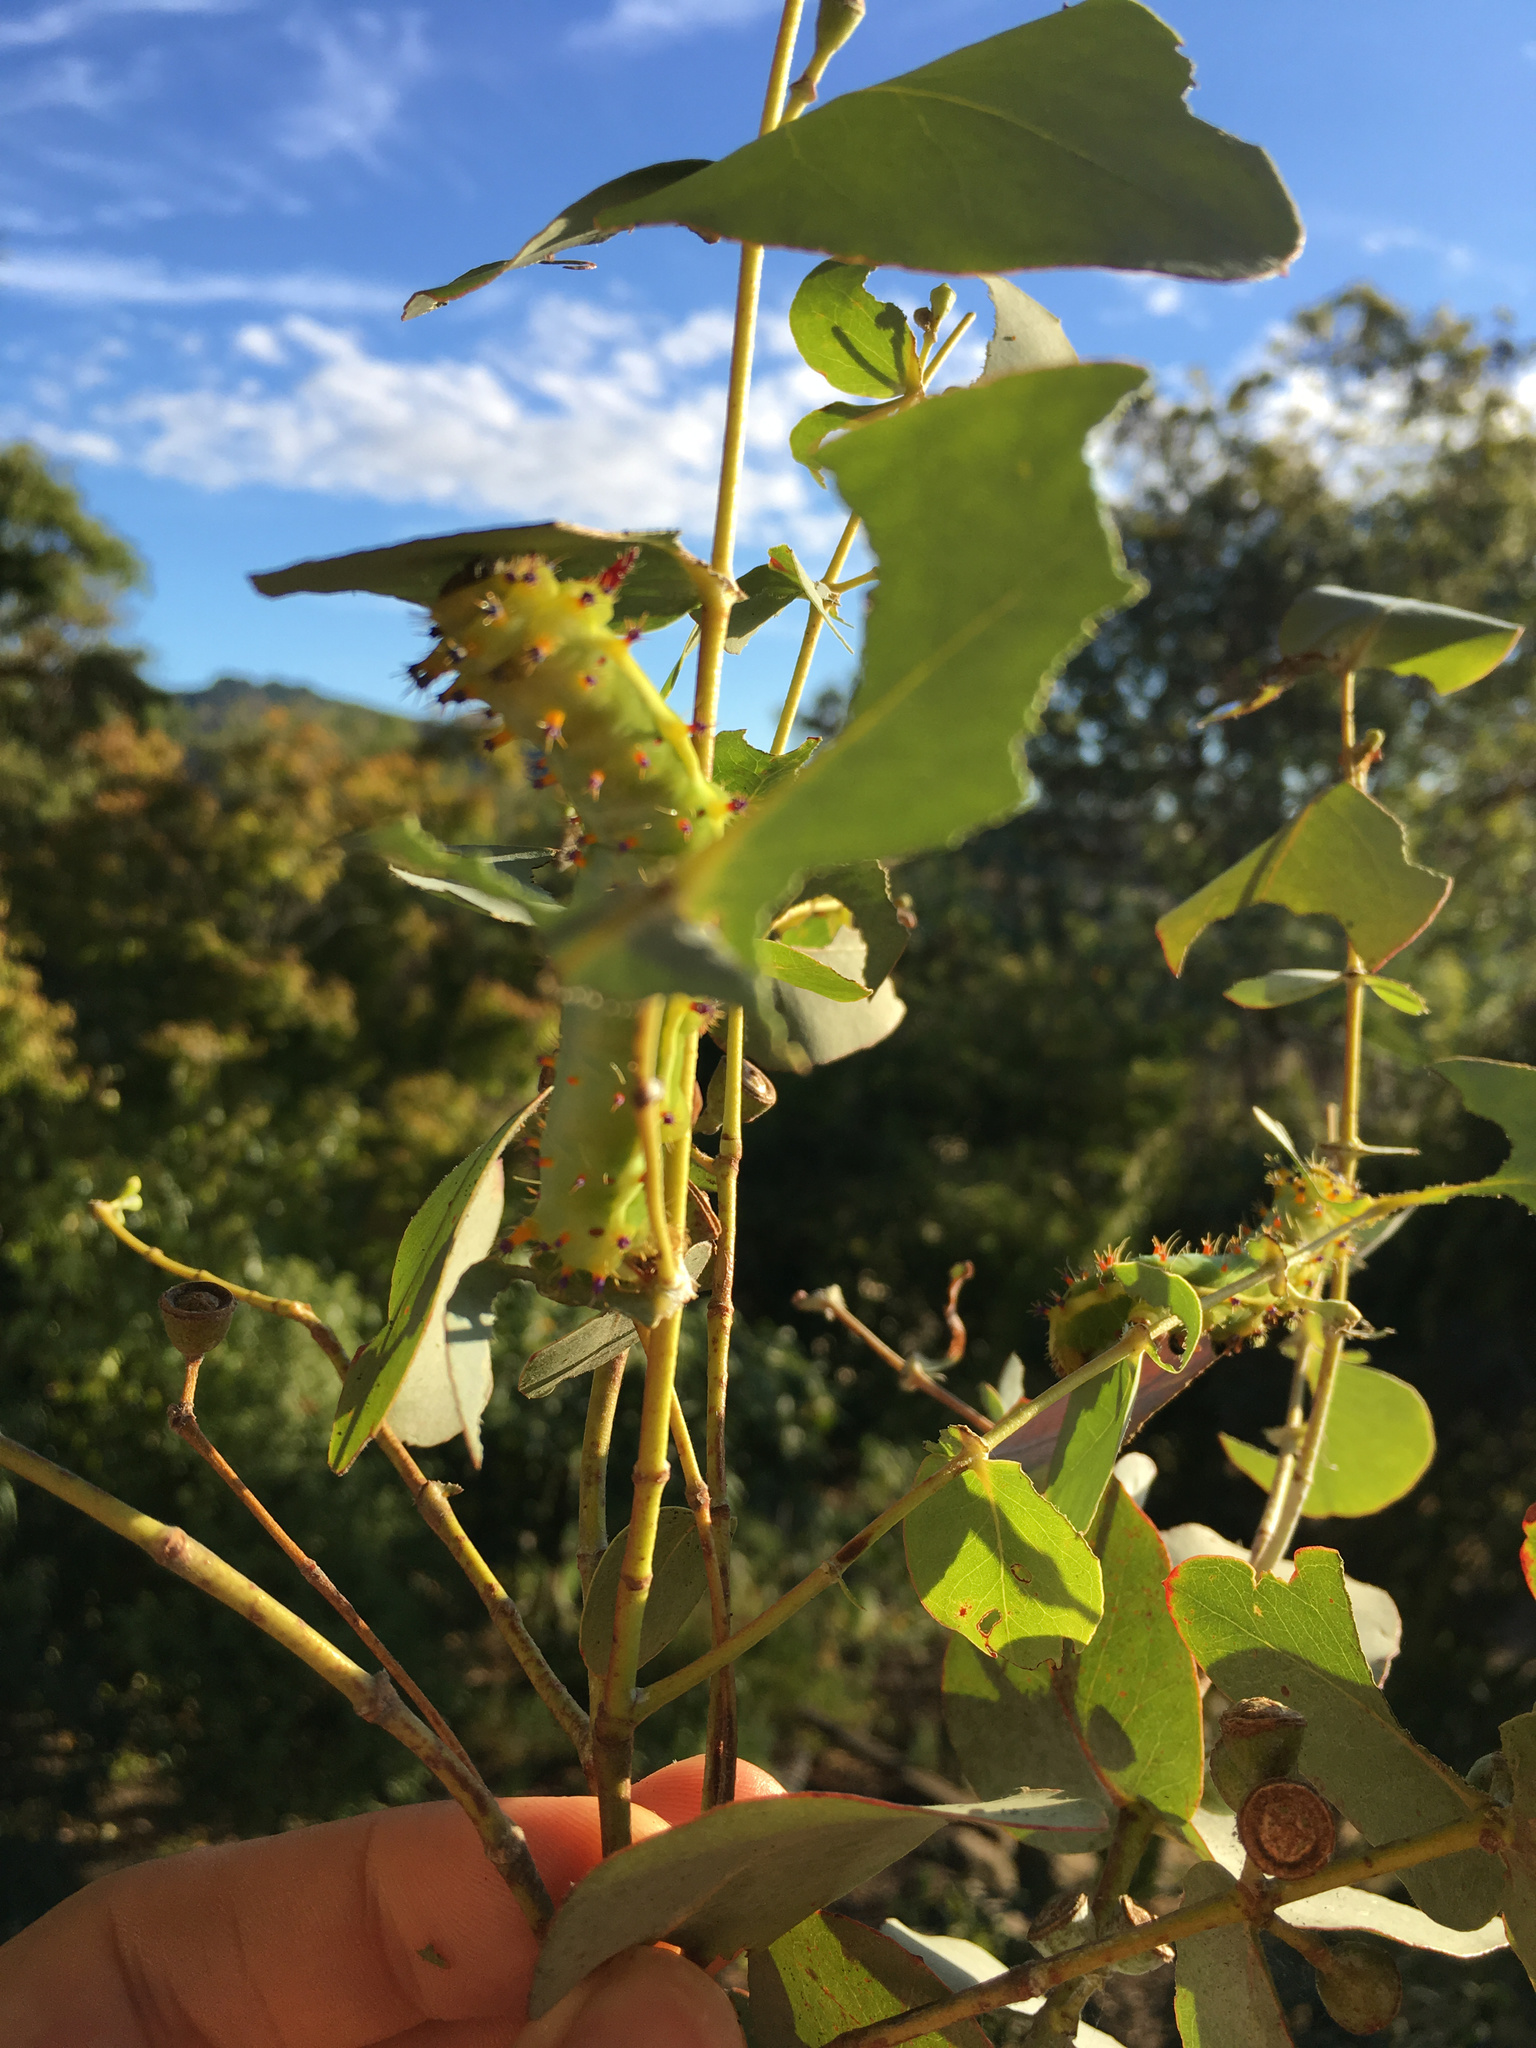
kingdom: Animalia
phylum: Arthropoda
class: Insecta
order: Lepidoptera
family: Saturniidae
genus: Opodiphthera
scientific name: Opodiphthera
